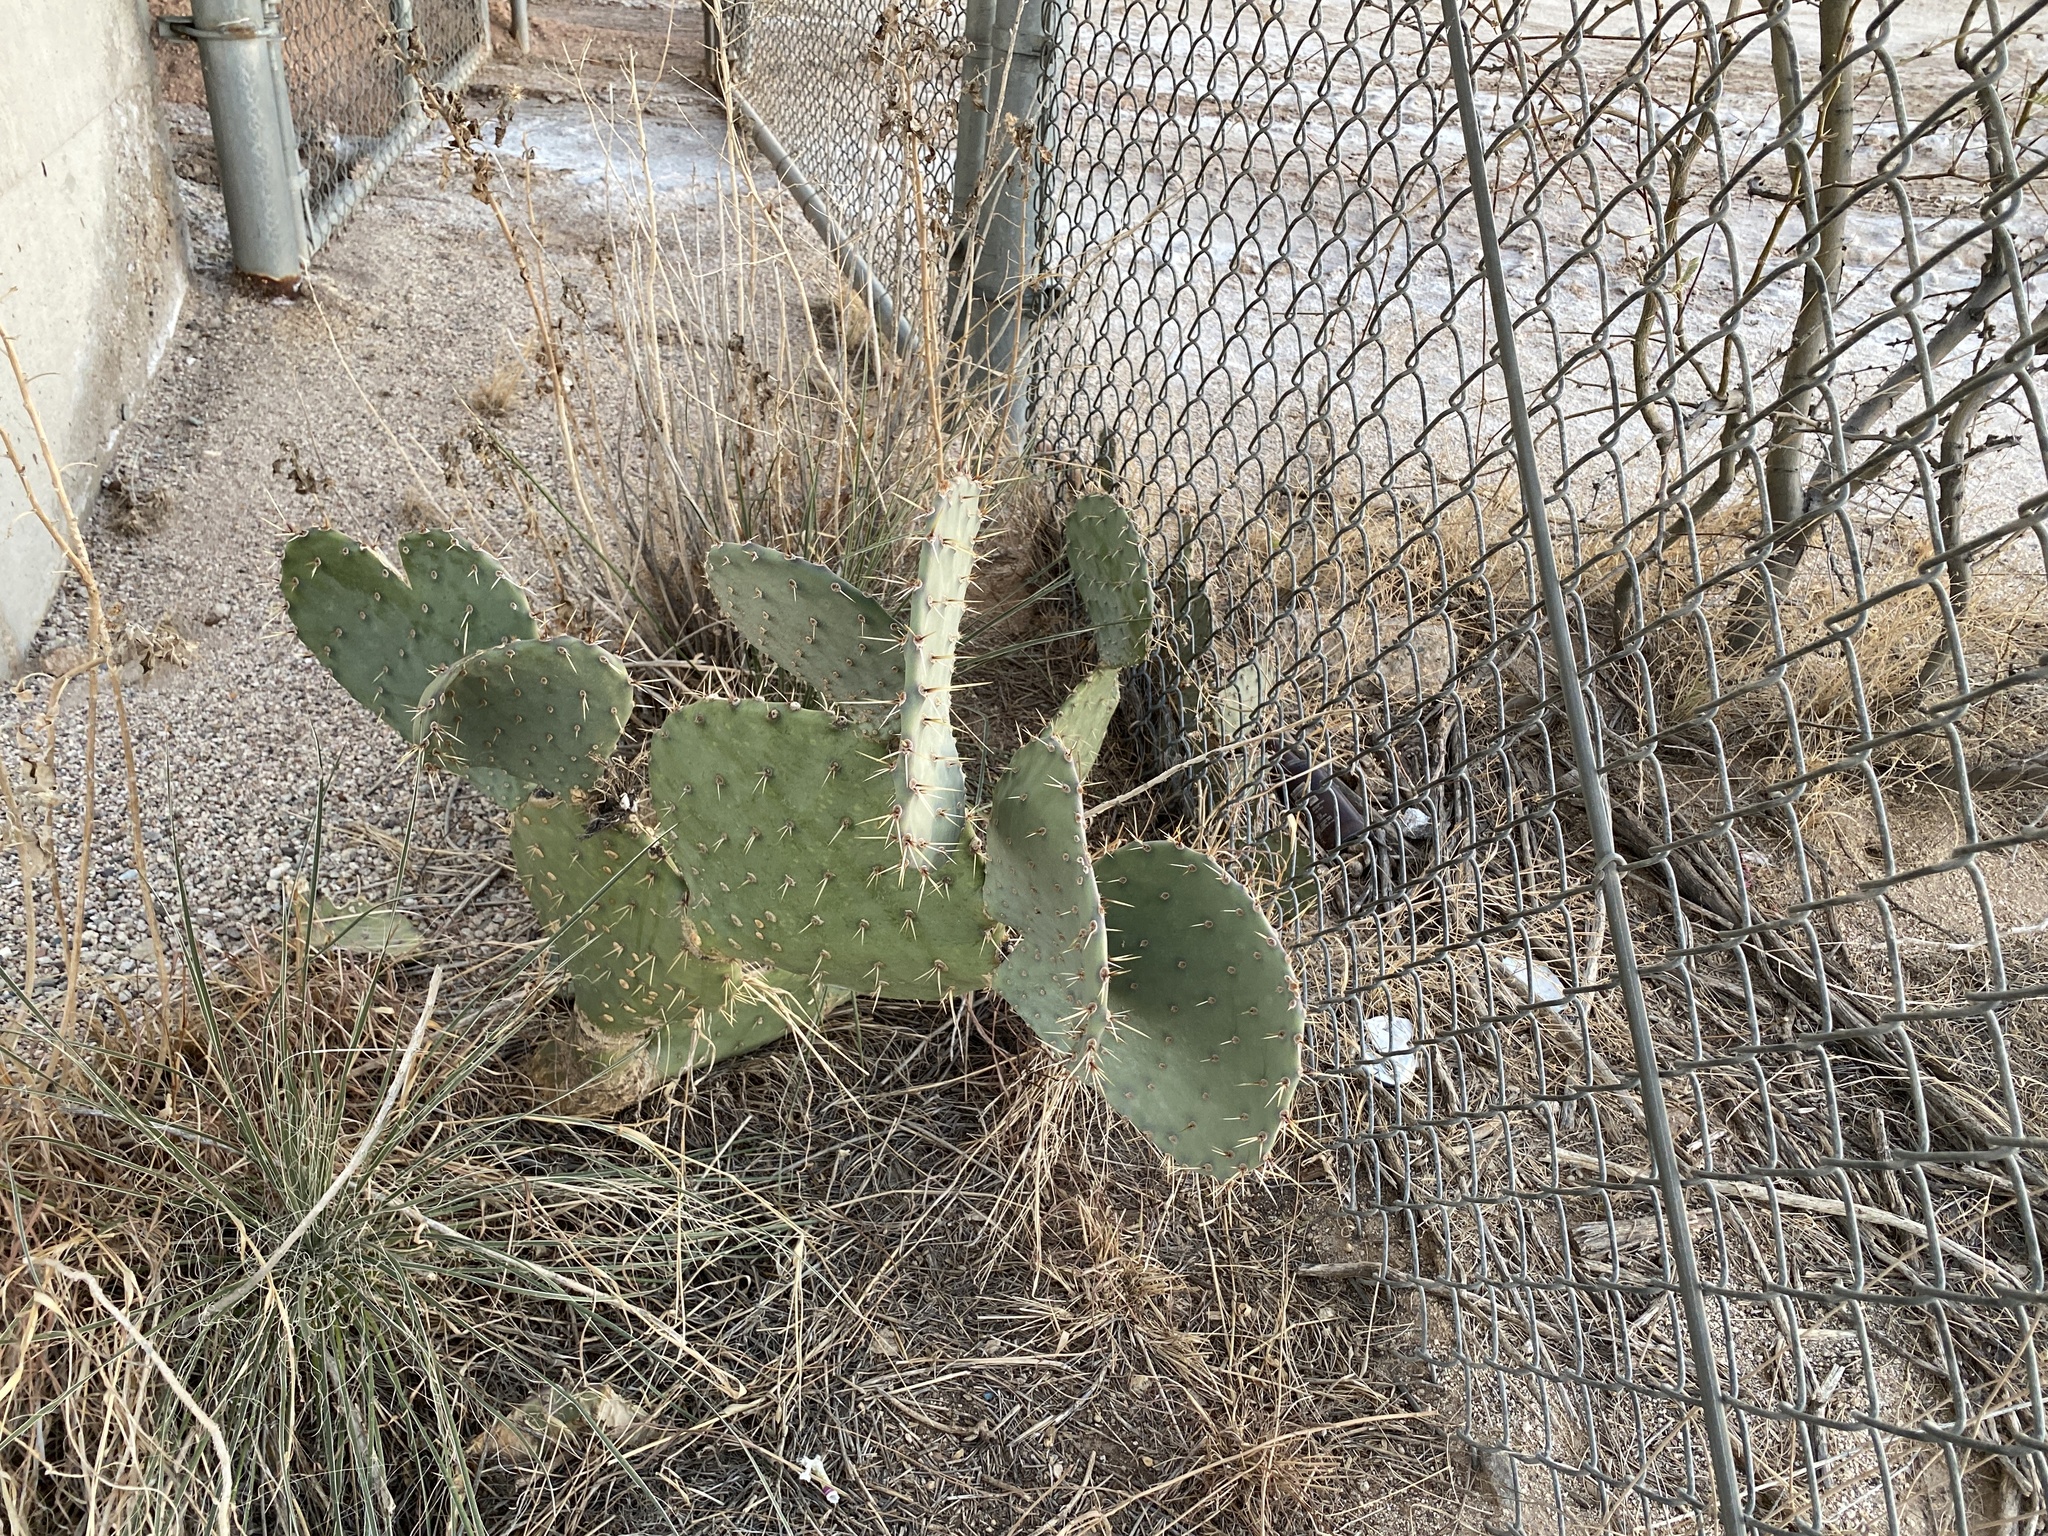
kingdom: Plantae
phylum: Tracheophyta
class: Magnoliopsida
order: Caryophyllales
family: Cactaceae
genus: Opuntia
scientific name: Opuntia engelmannii
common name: Cactus-apple
